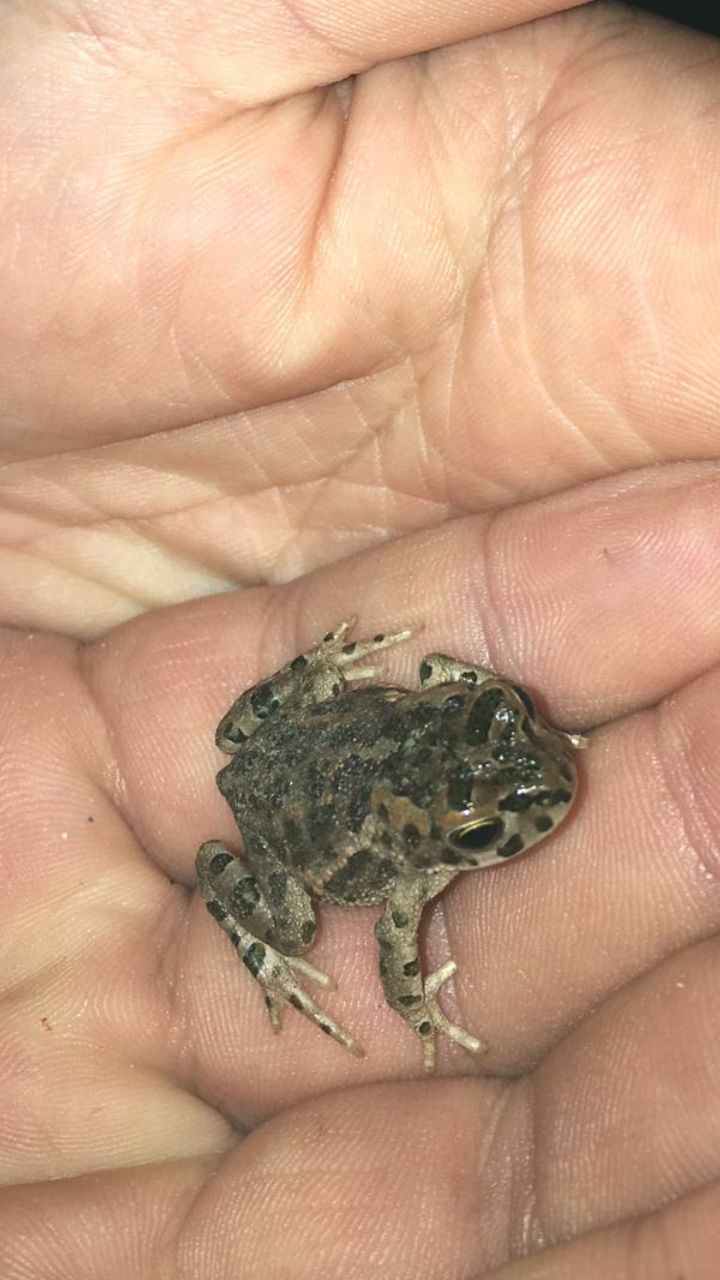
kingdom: Animalia
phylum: Chordata
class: Amphibia
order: Anura
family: Bufonidae
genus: Bufotes
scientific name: Bufotes viridis
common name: European green toad
